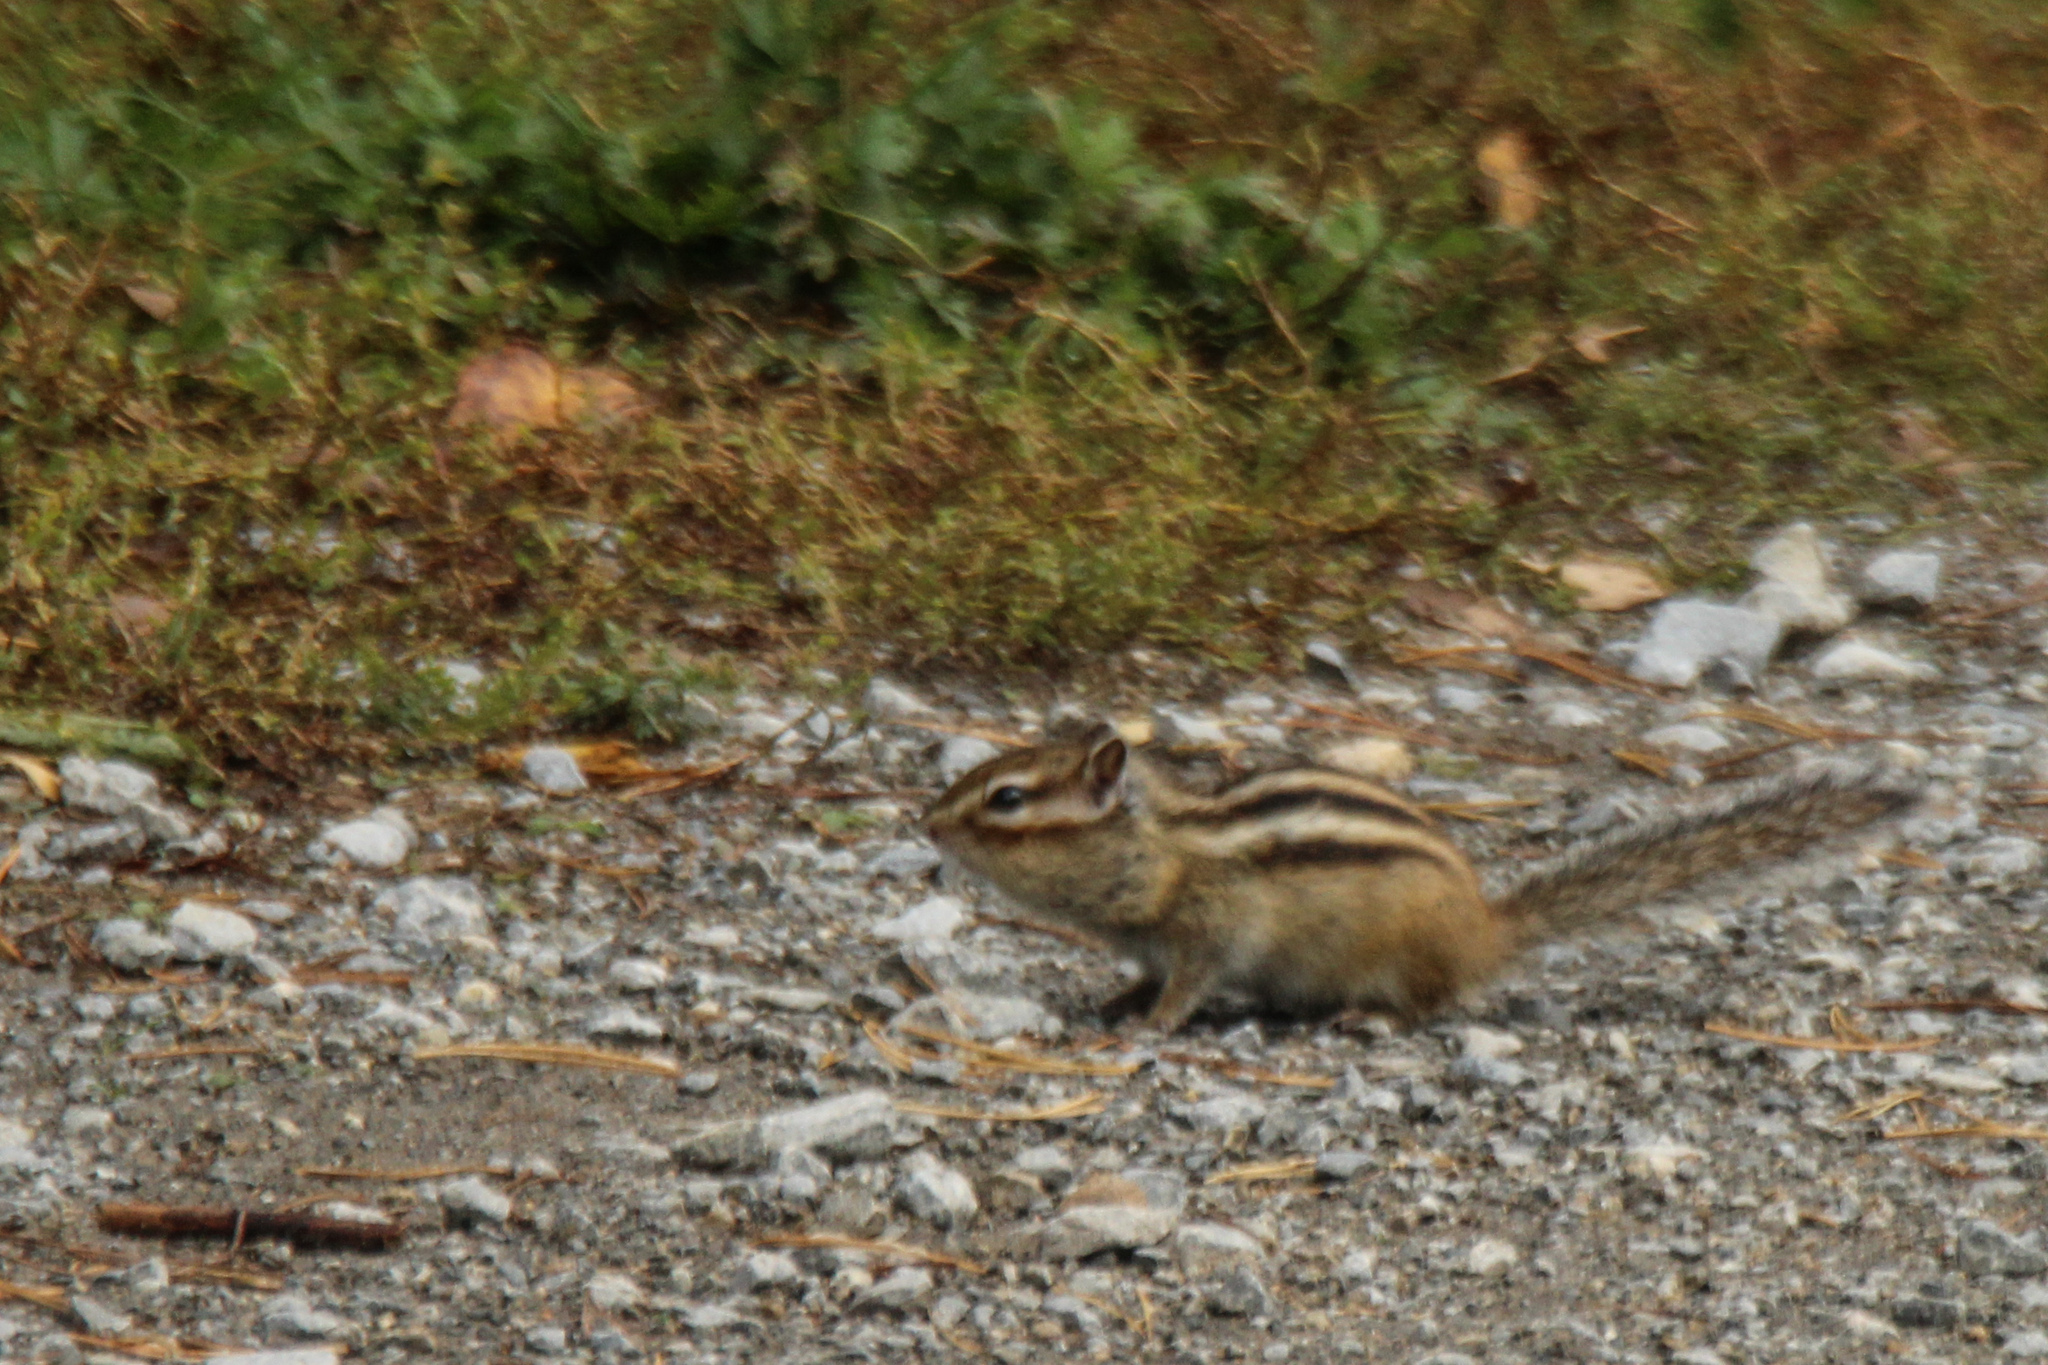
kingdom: Animalia
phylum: Chordata
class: Mammalia
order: Rodentia
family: Sciuridae
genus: Tamias
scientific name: Tamias sibiricus
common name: Siberian chipmunk
